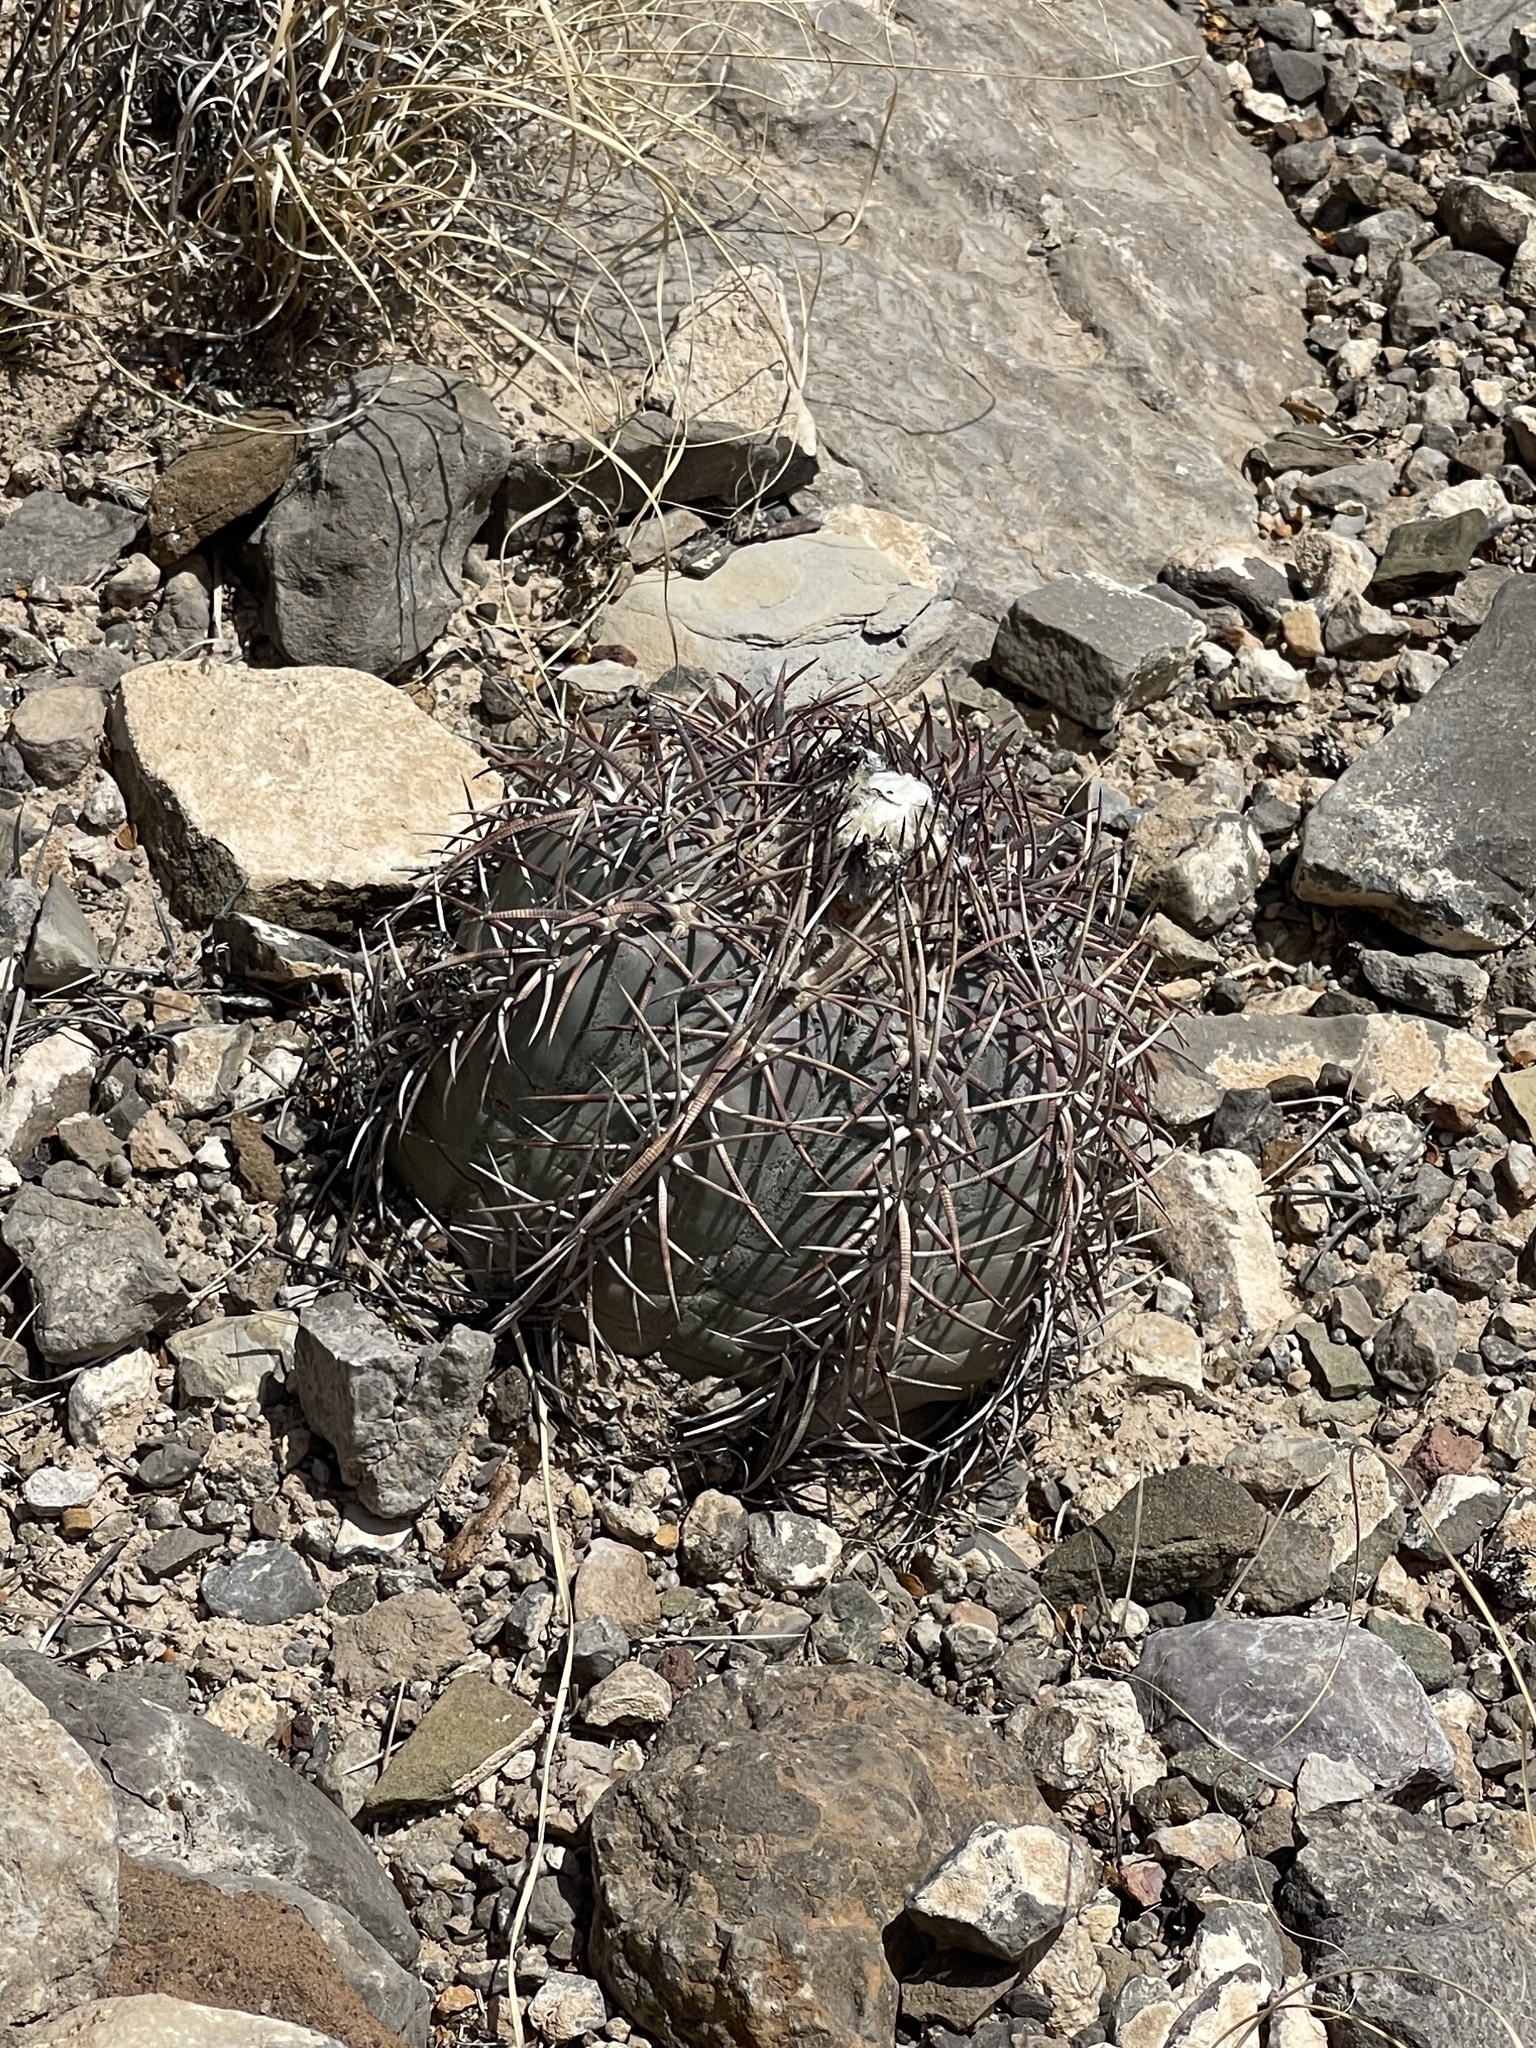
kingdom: Plantae
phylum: Tracheophyta
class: Magnoliopsida
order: Caryophyllales
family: Cactaceae
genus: Echinocactus
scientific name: Echinocactus horizonthalonius
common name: Devilshead
